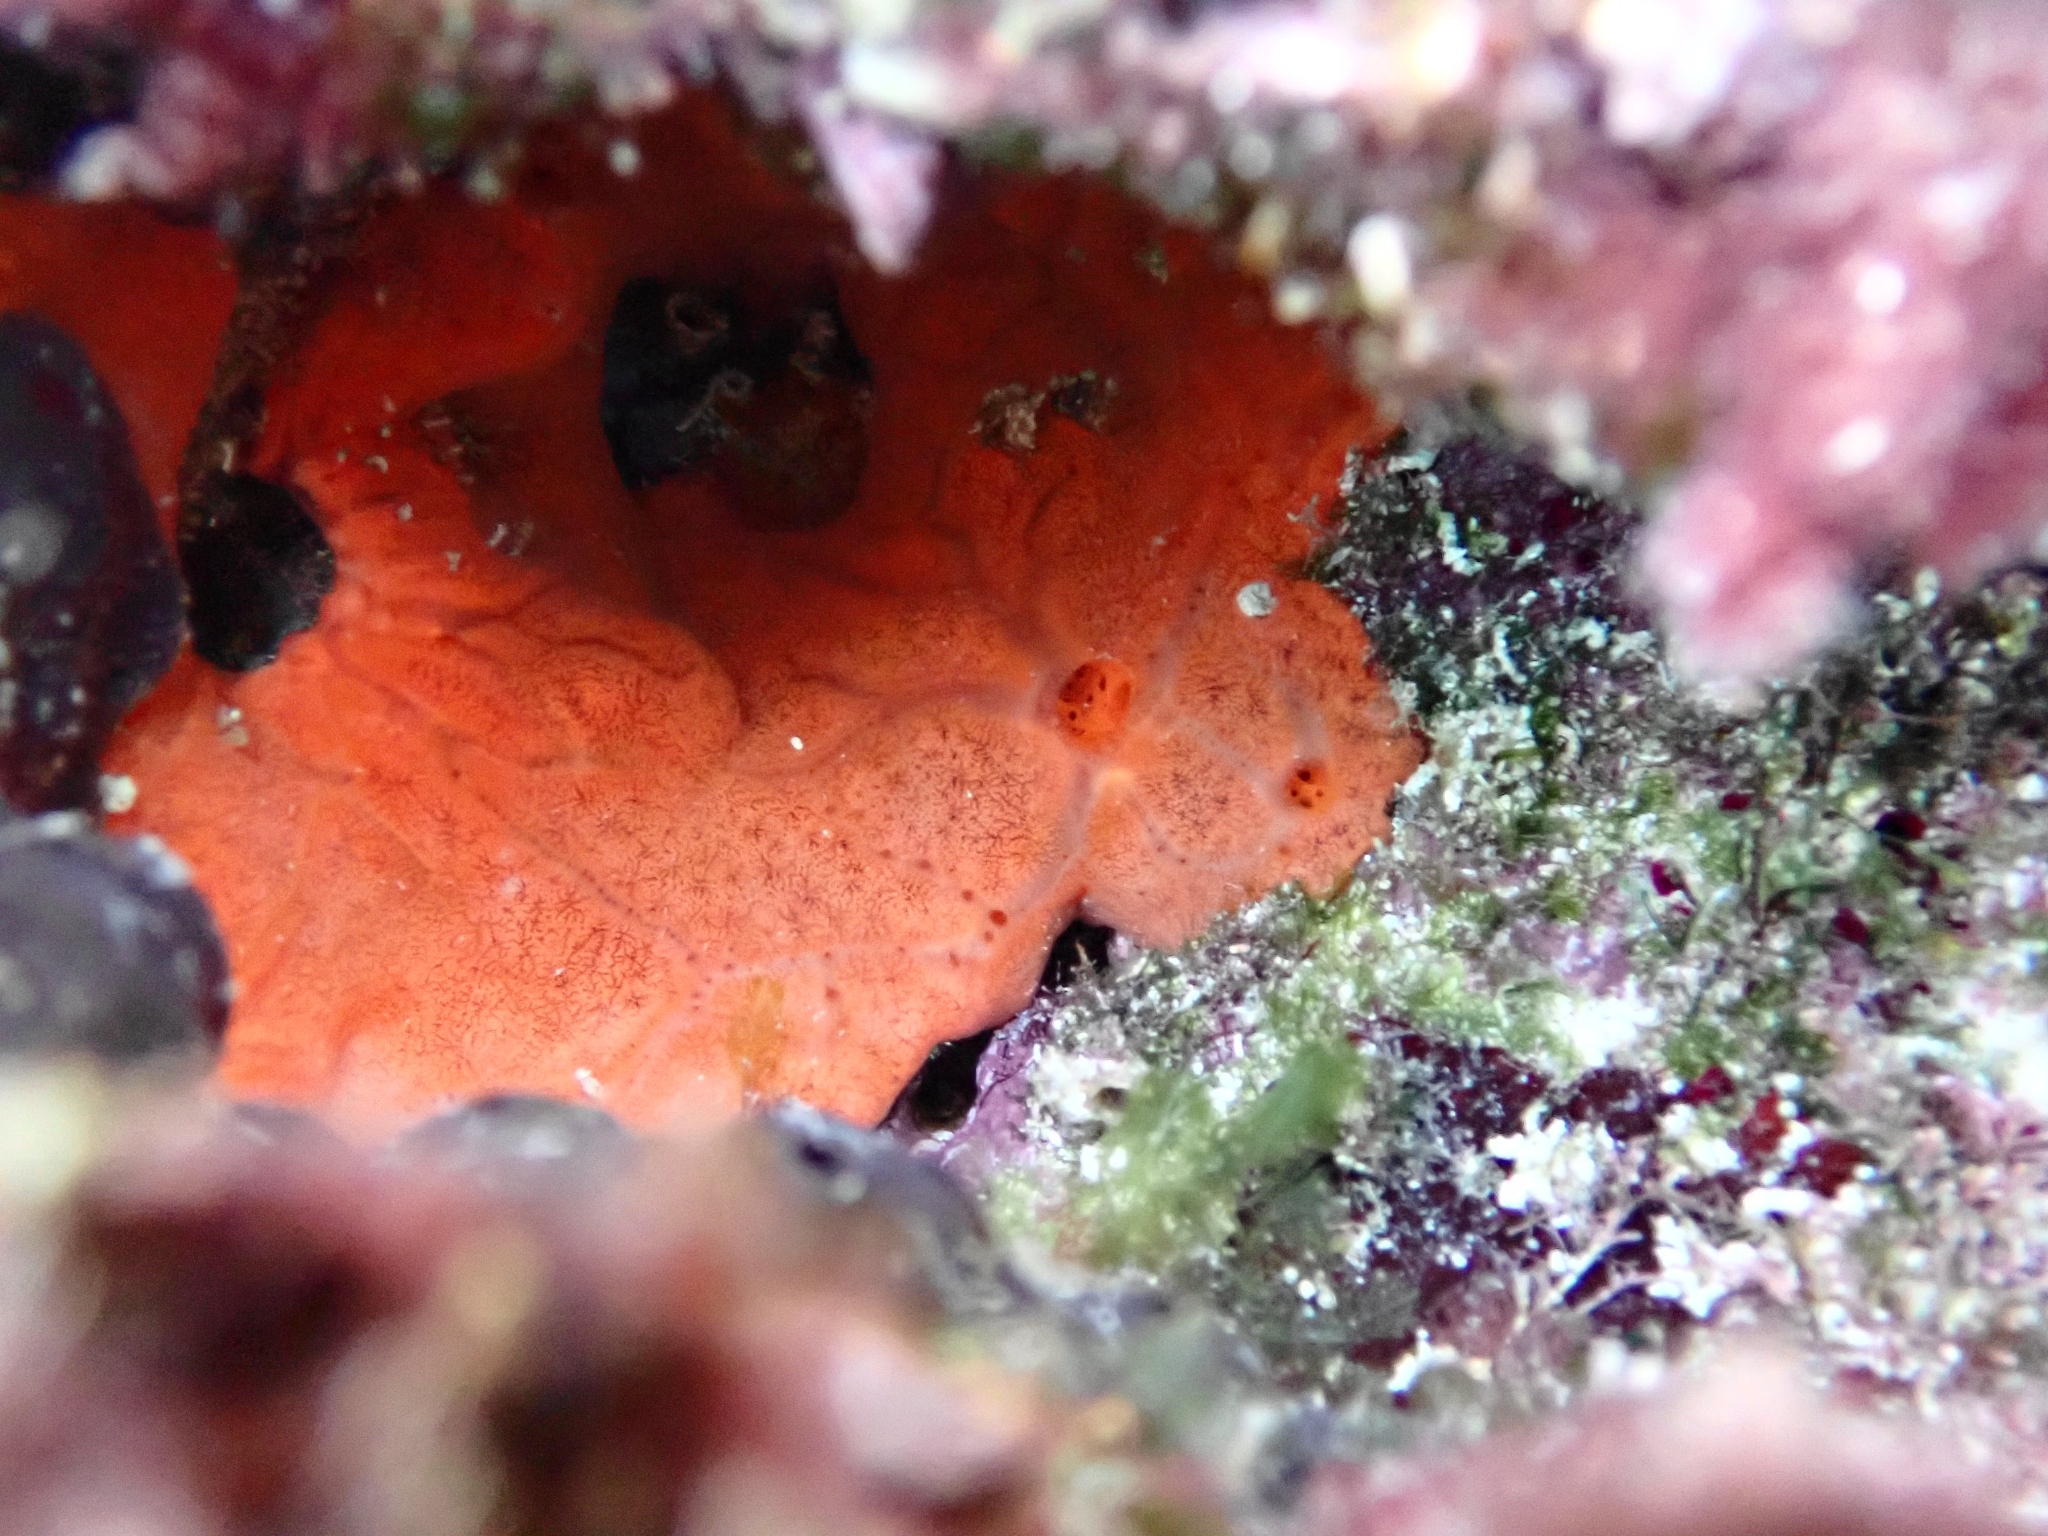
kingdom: Animalia
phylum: Porifera
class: Demospongiae
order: Clionaida
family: Spirastrellidae
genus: Spirastrella
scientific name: Spirastrella cunctatrix
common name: Encrusting orange sponge
